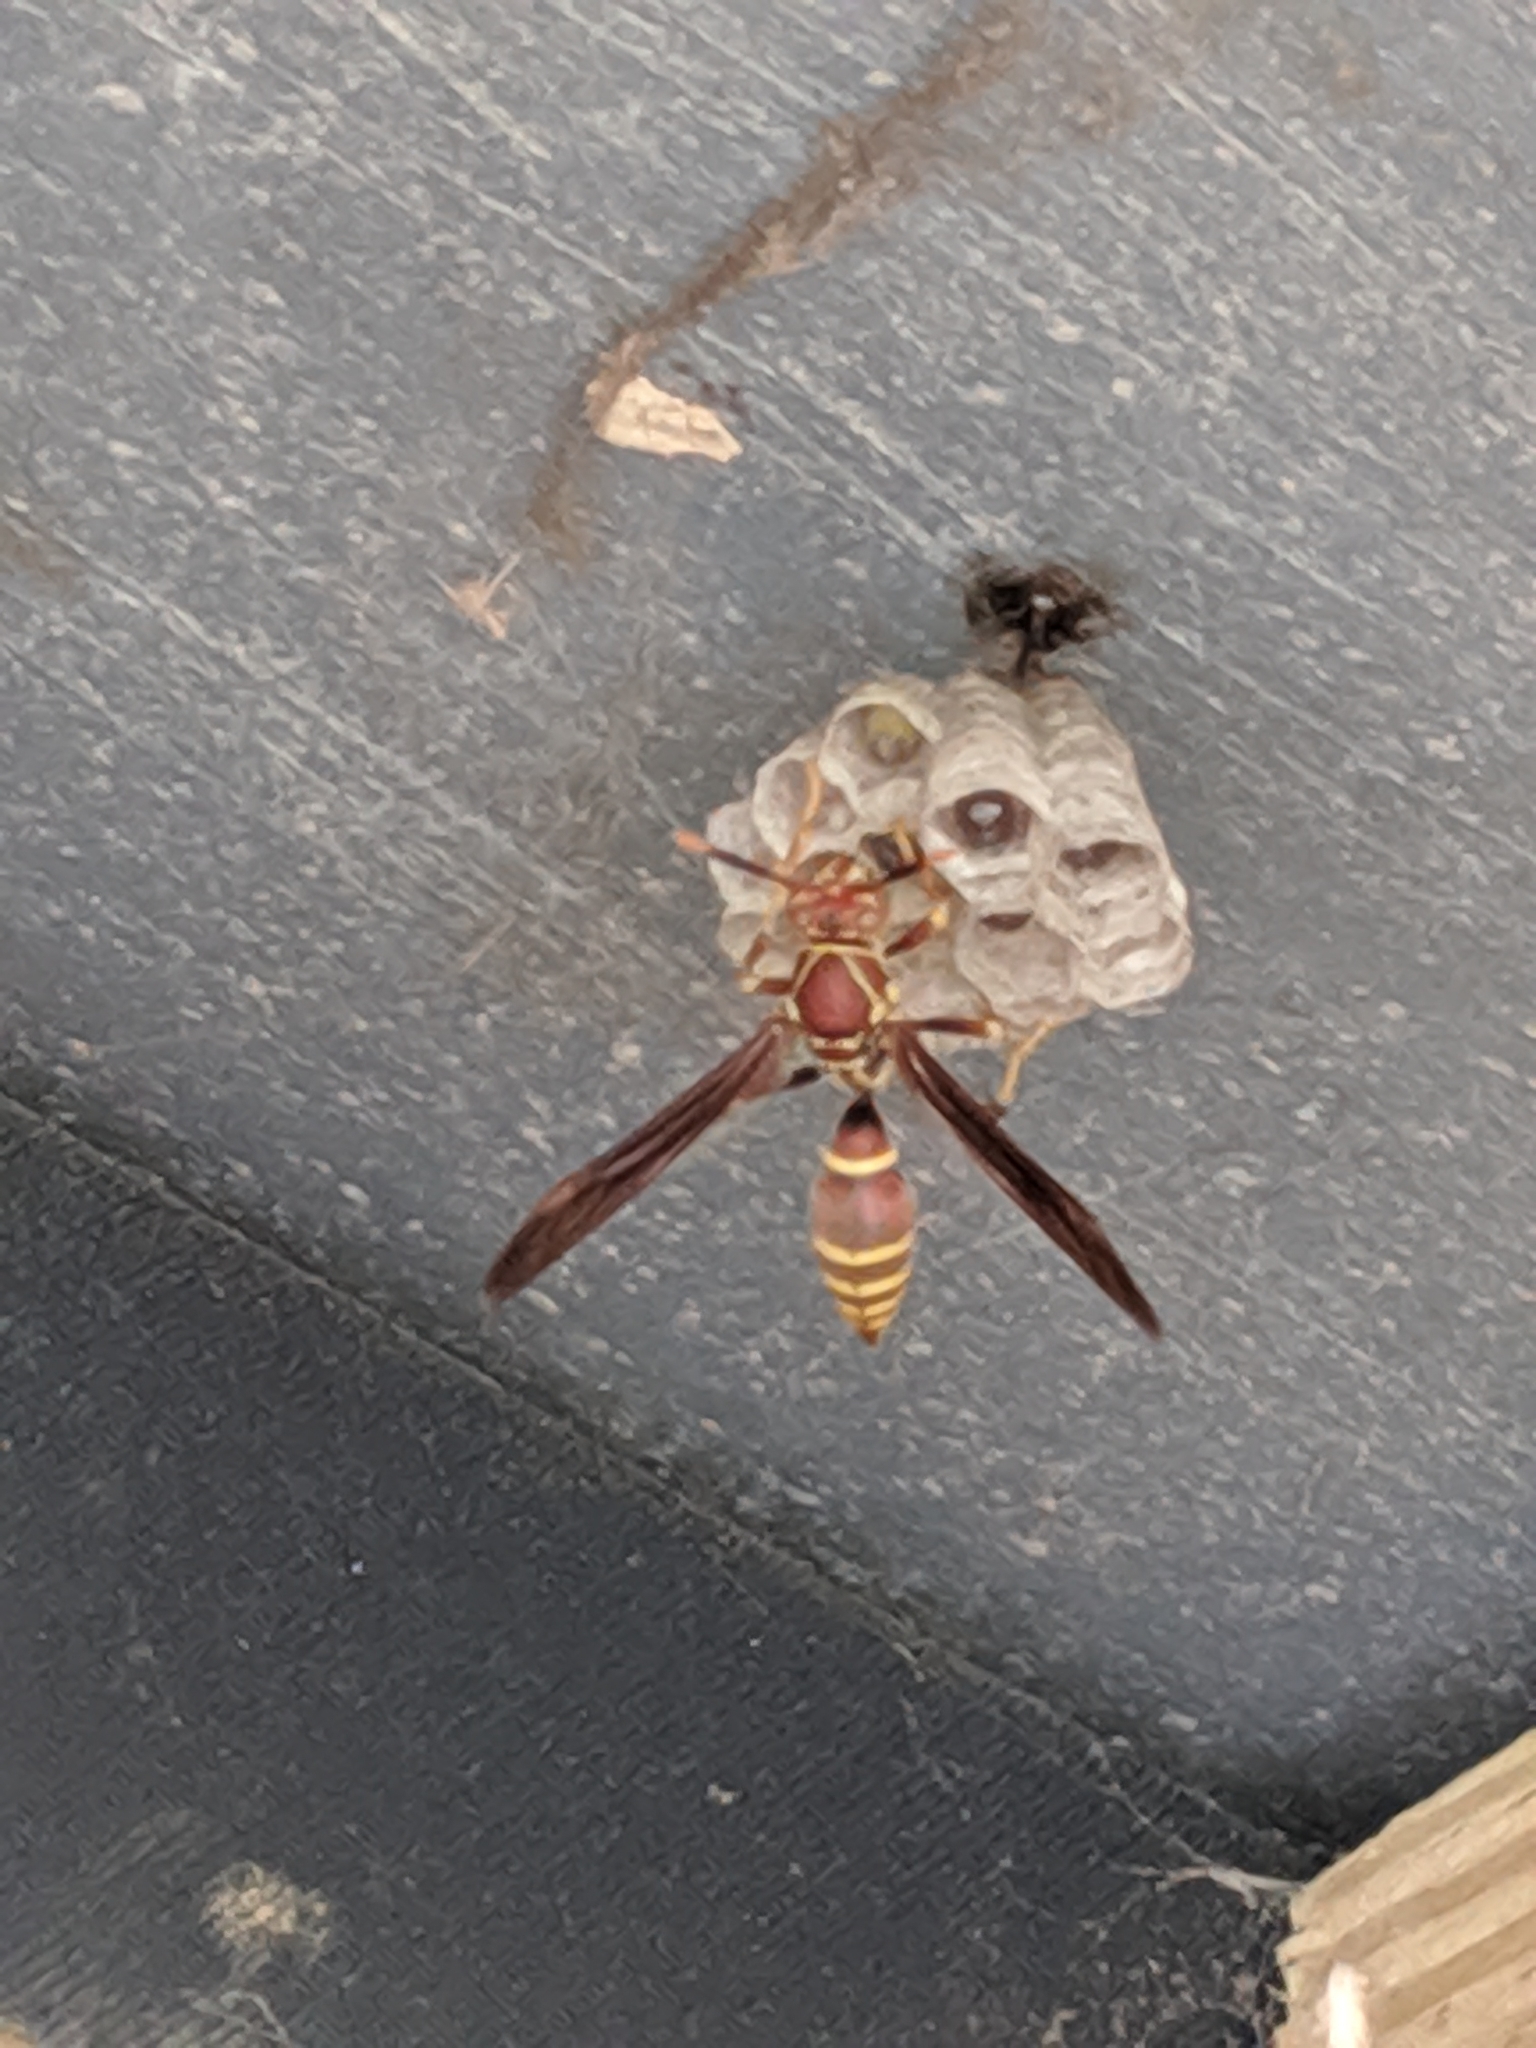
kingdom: Animalia
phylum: Arthropoda
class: Insecta
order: Hymenoptera
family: Eumenidae
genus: Polistes
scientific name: Polistes exclamans
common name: Paper wasp
